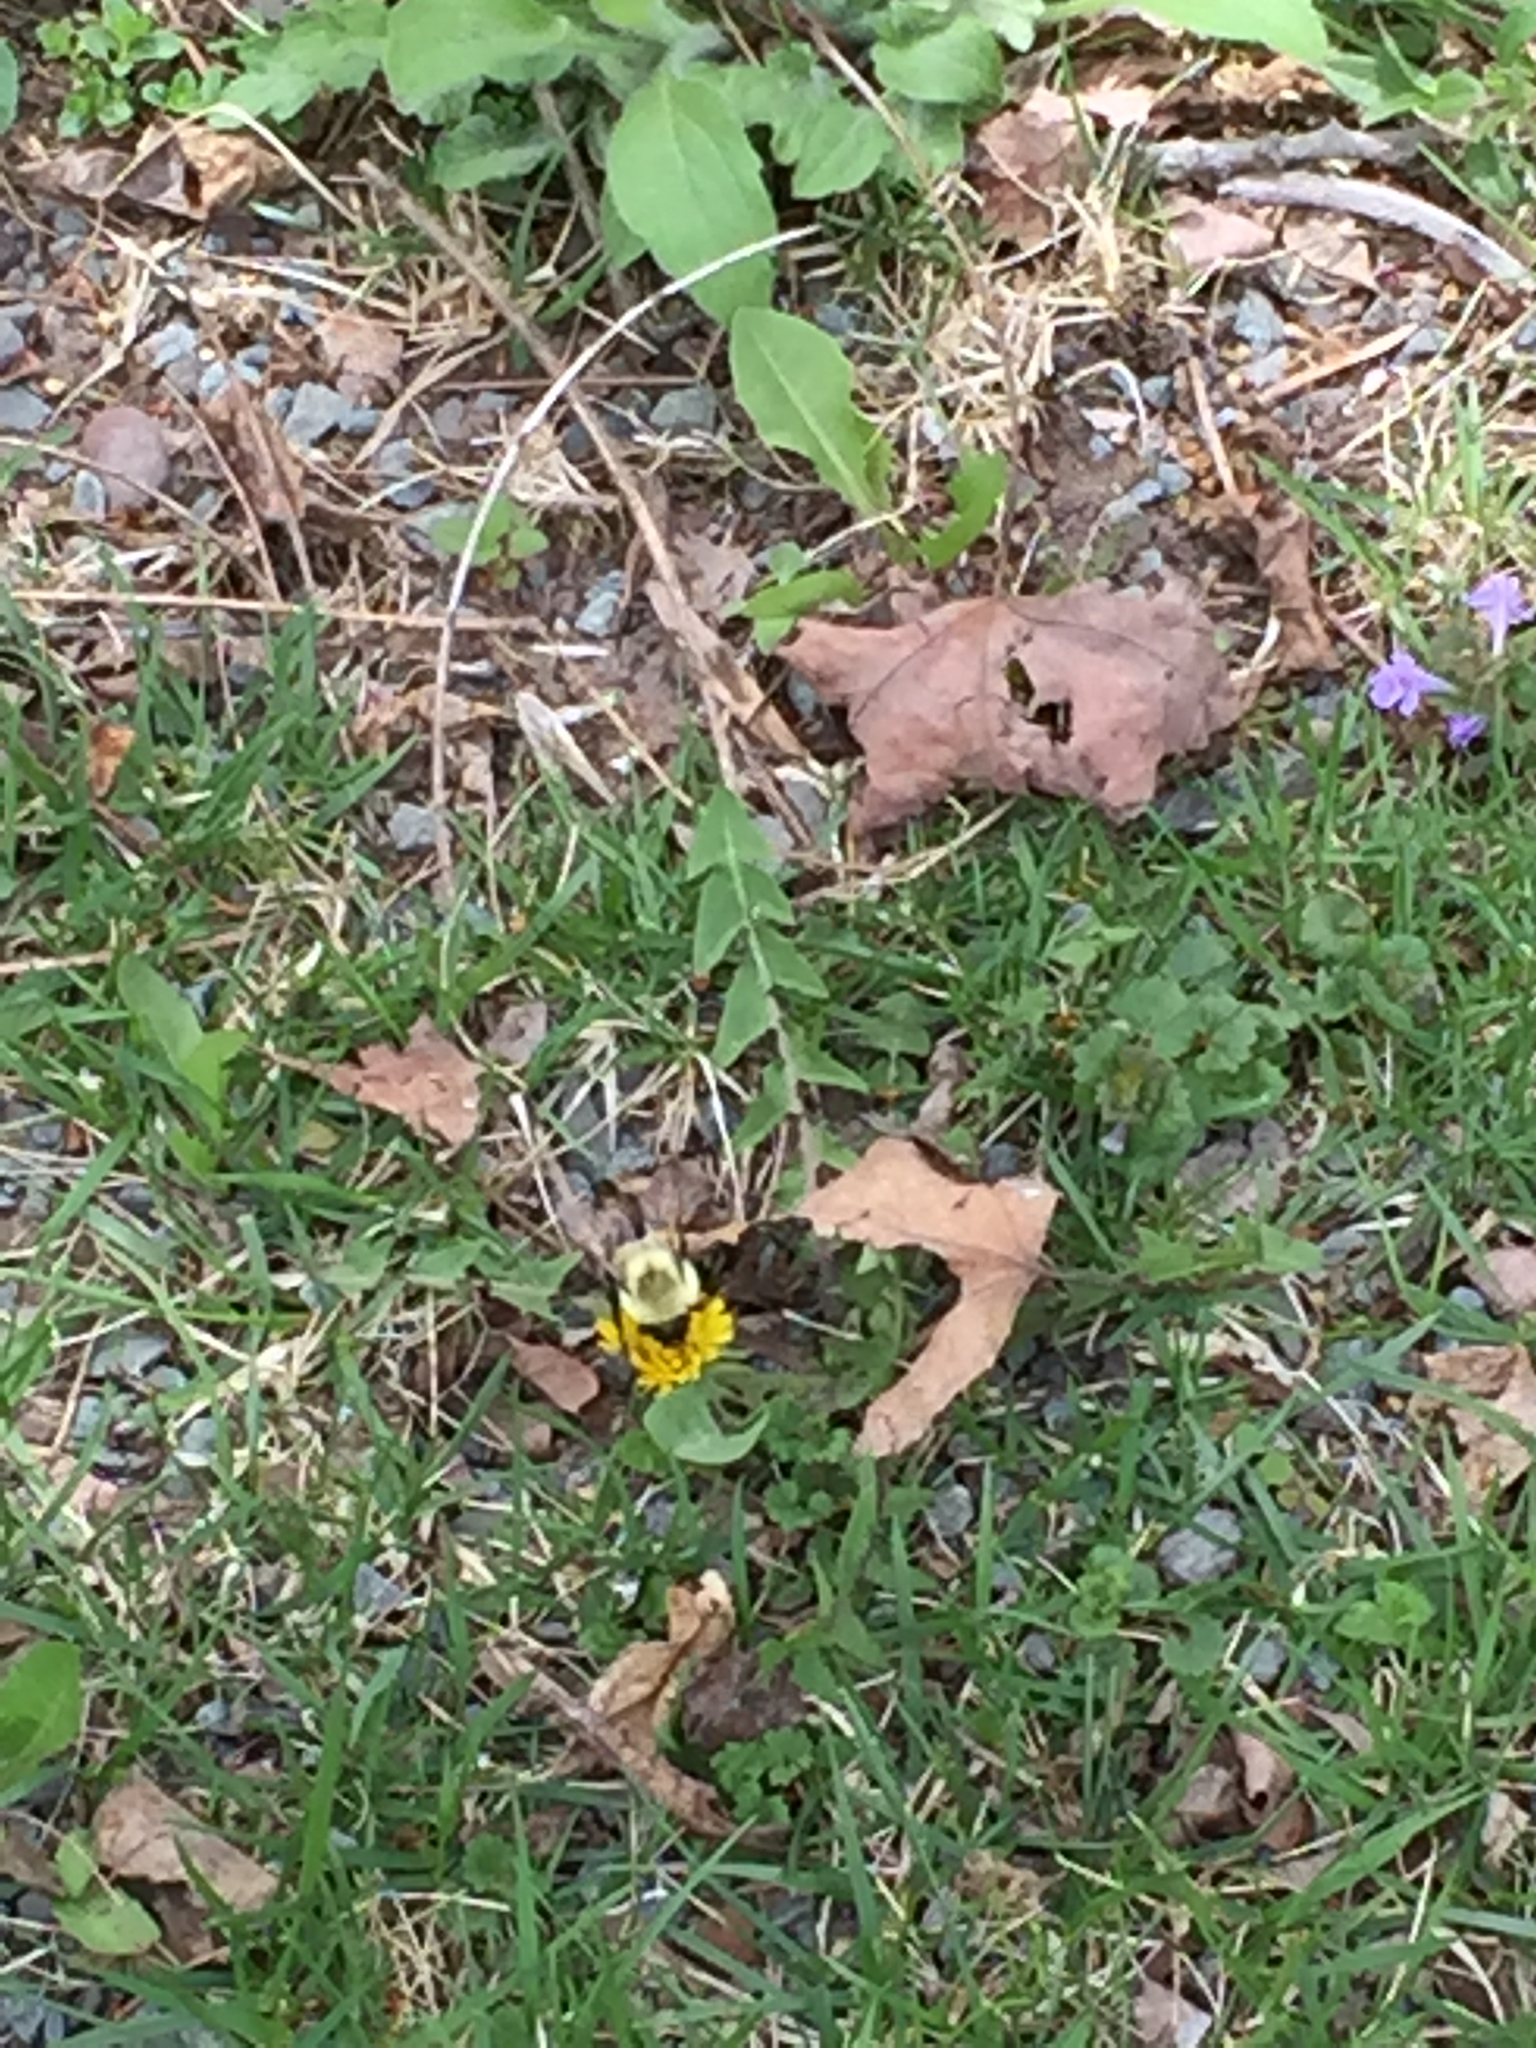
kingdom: Animalia
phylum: Arthropoda
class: Insecta
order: Hymenoptera
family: Apidae
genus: Bombus
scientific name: Bombus impatiens
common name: Common eastern bumble bee
